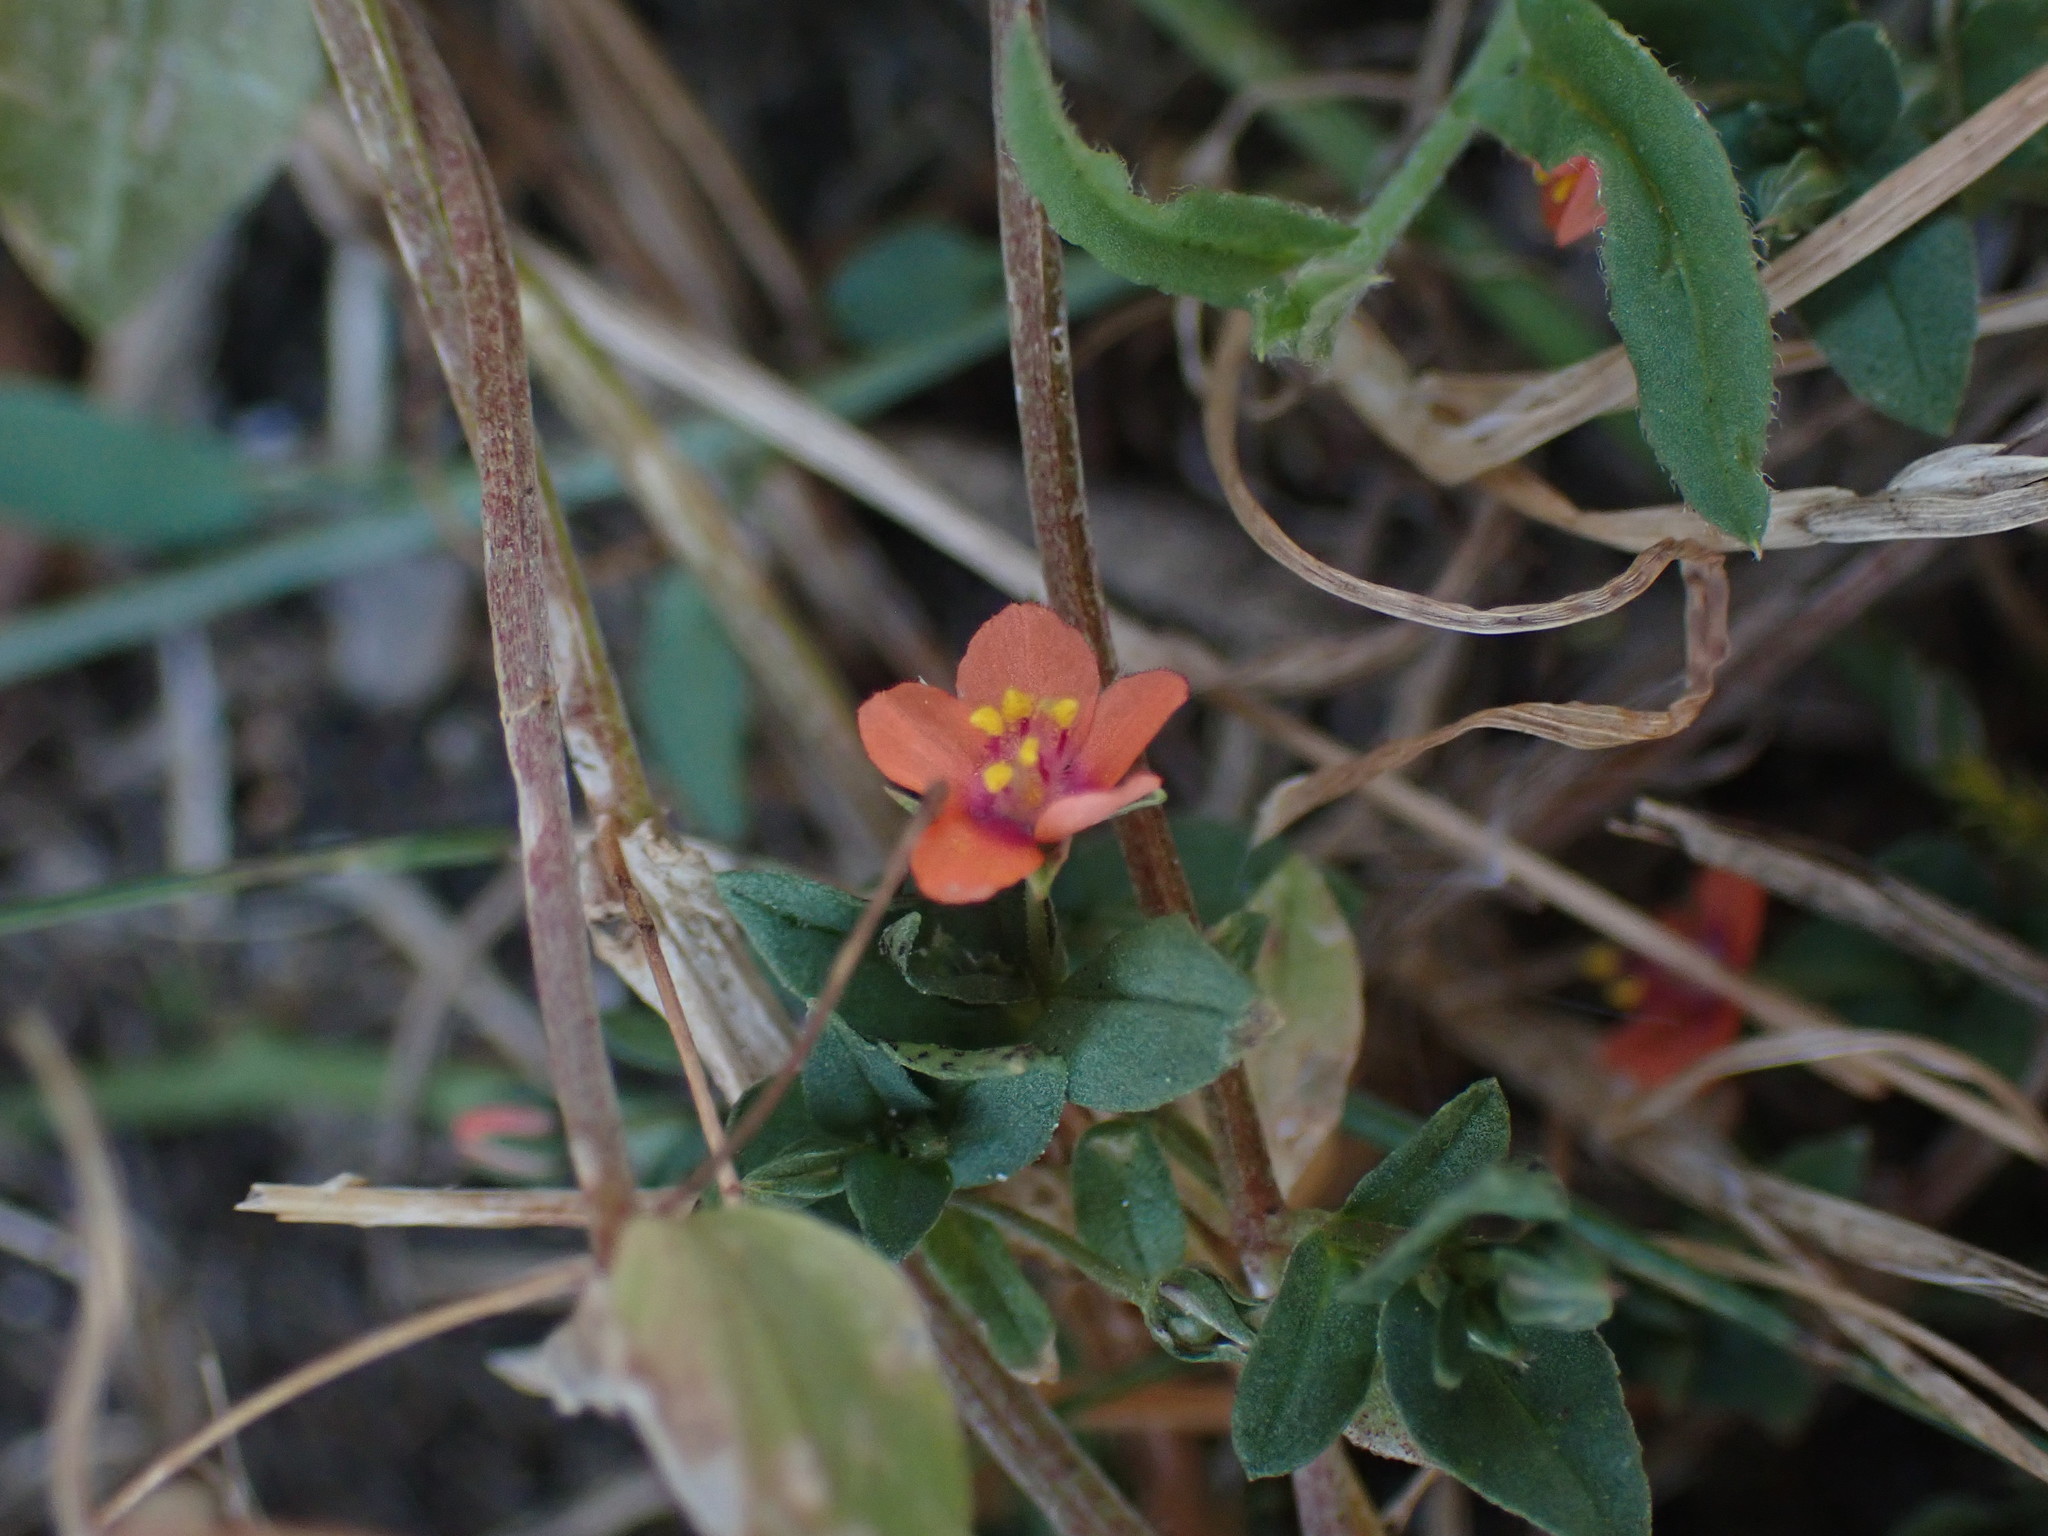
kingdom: Plantae
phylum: Tracheophyta
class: Magnoliopsida
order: Ericales
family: Primulaceae
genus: Lysimachia
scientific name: Lysimachia arvensis
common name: Scarlet pimpernel
